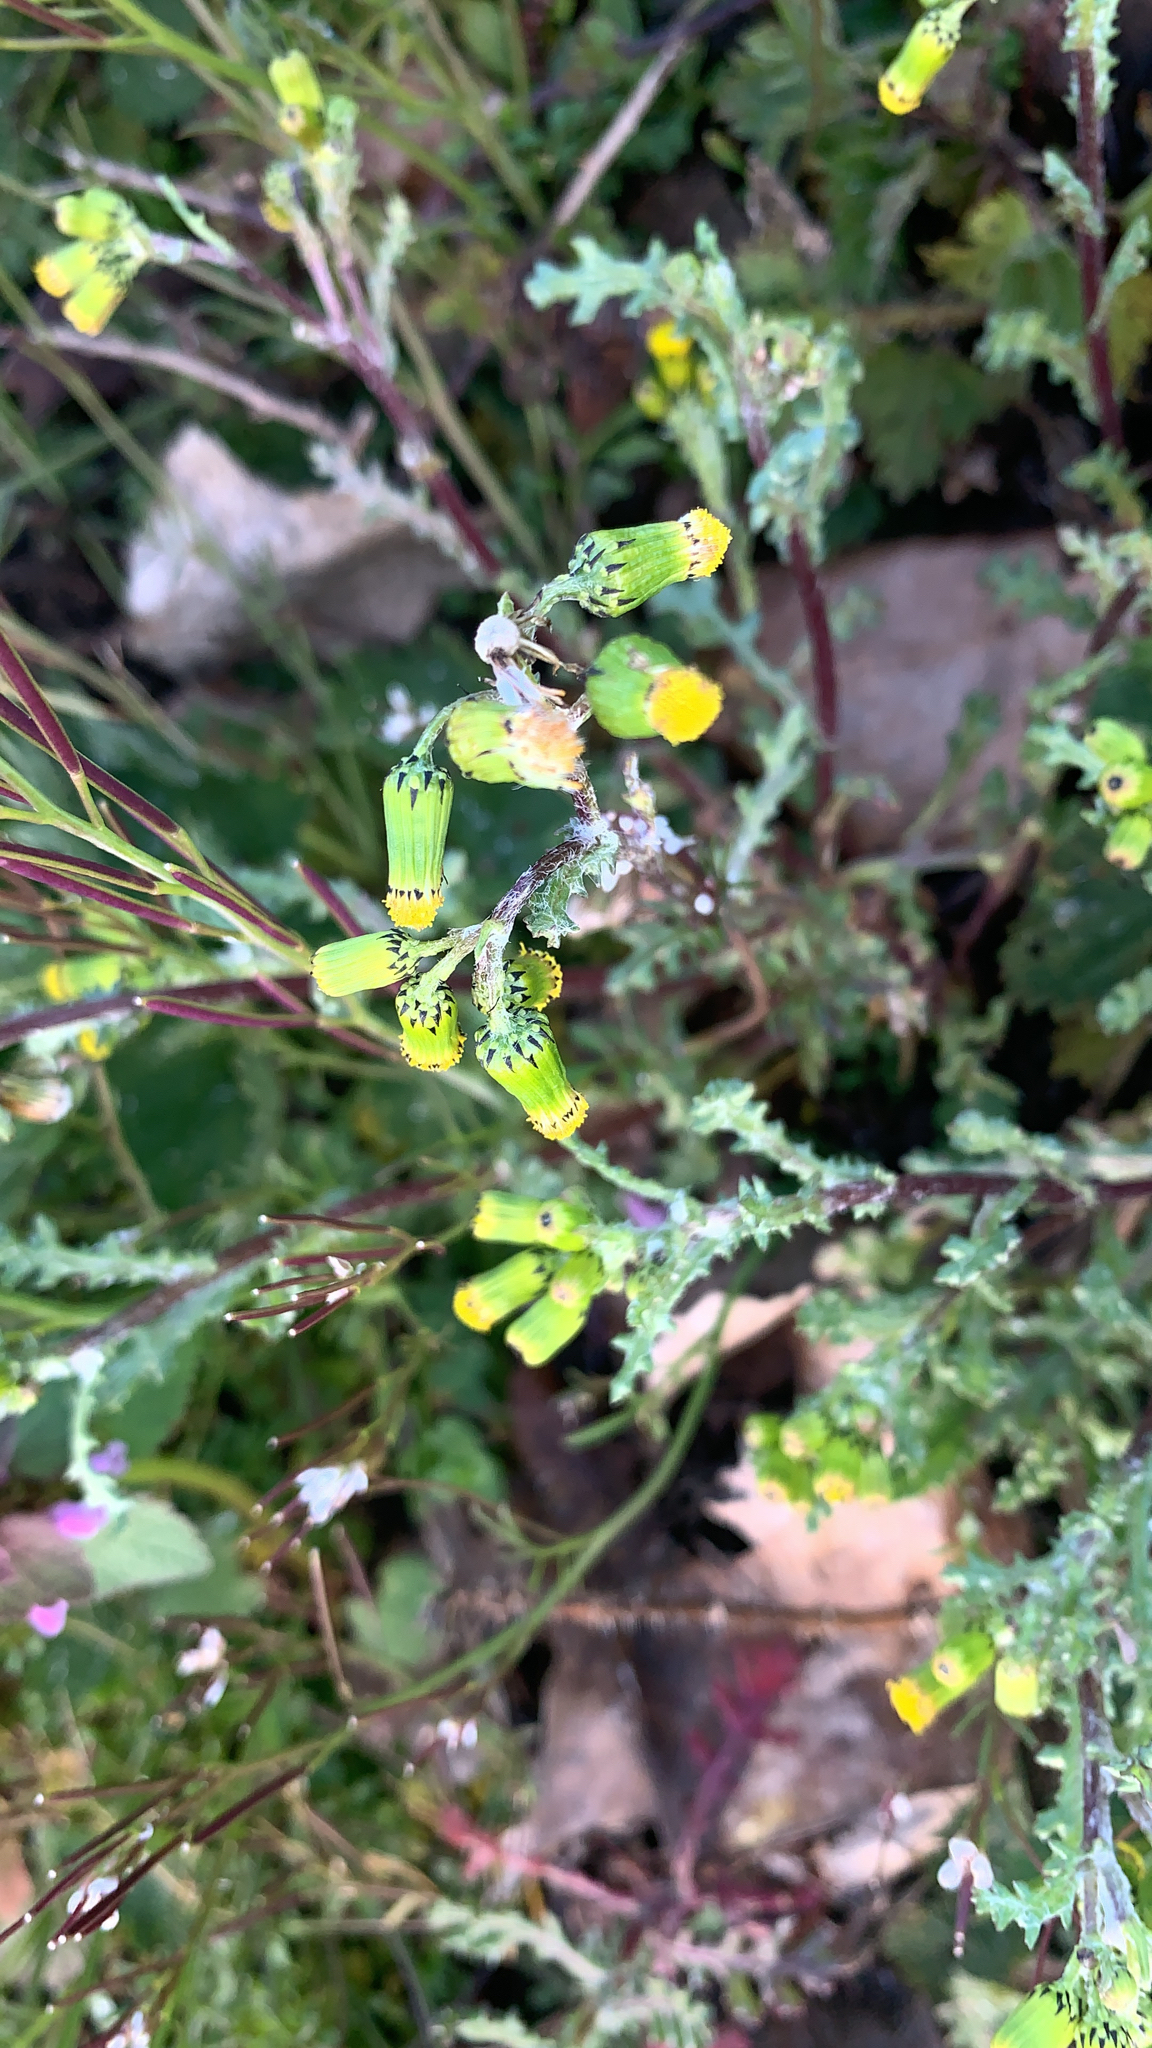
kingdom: Plantae
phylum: Tracheophyta
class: Magnoliopsida
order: Asterales
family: Asteraceae
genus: Senecio
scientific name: Senecio vulgaris
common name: Old-man-in-the-spring
